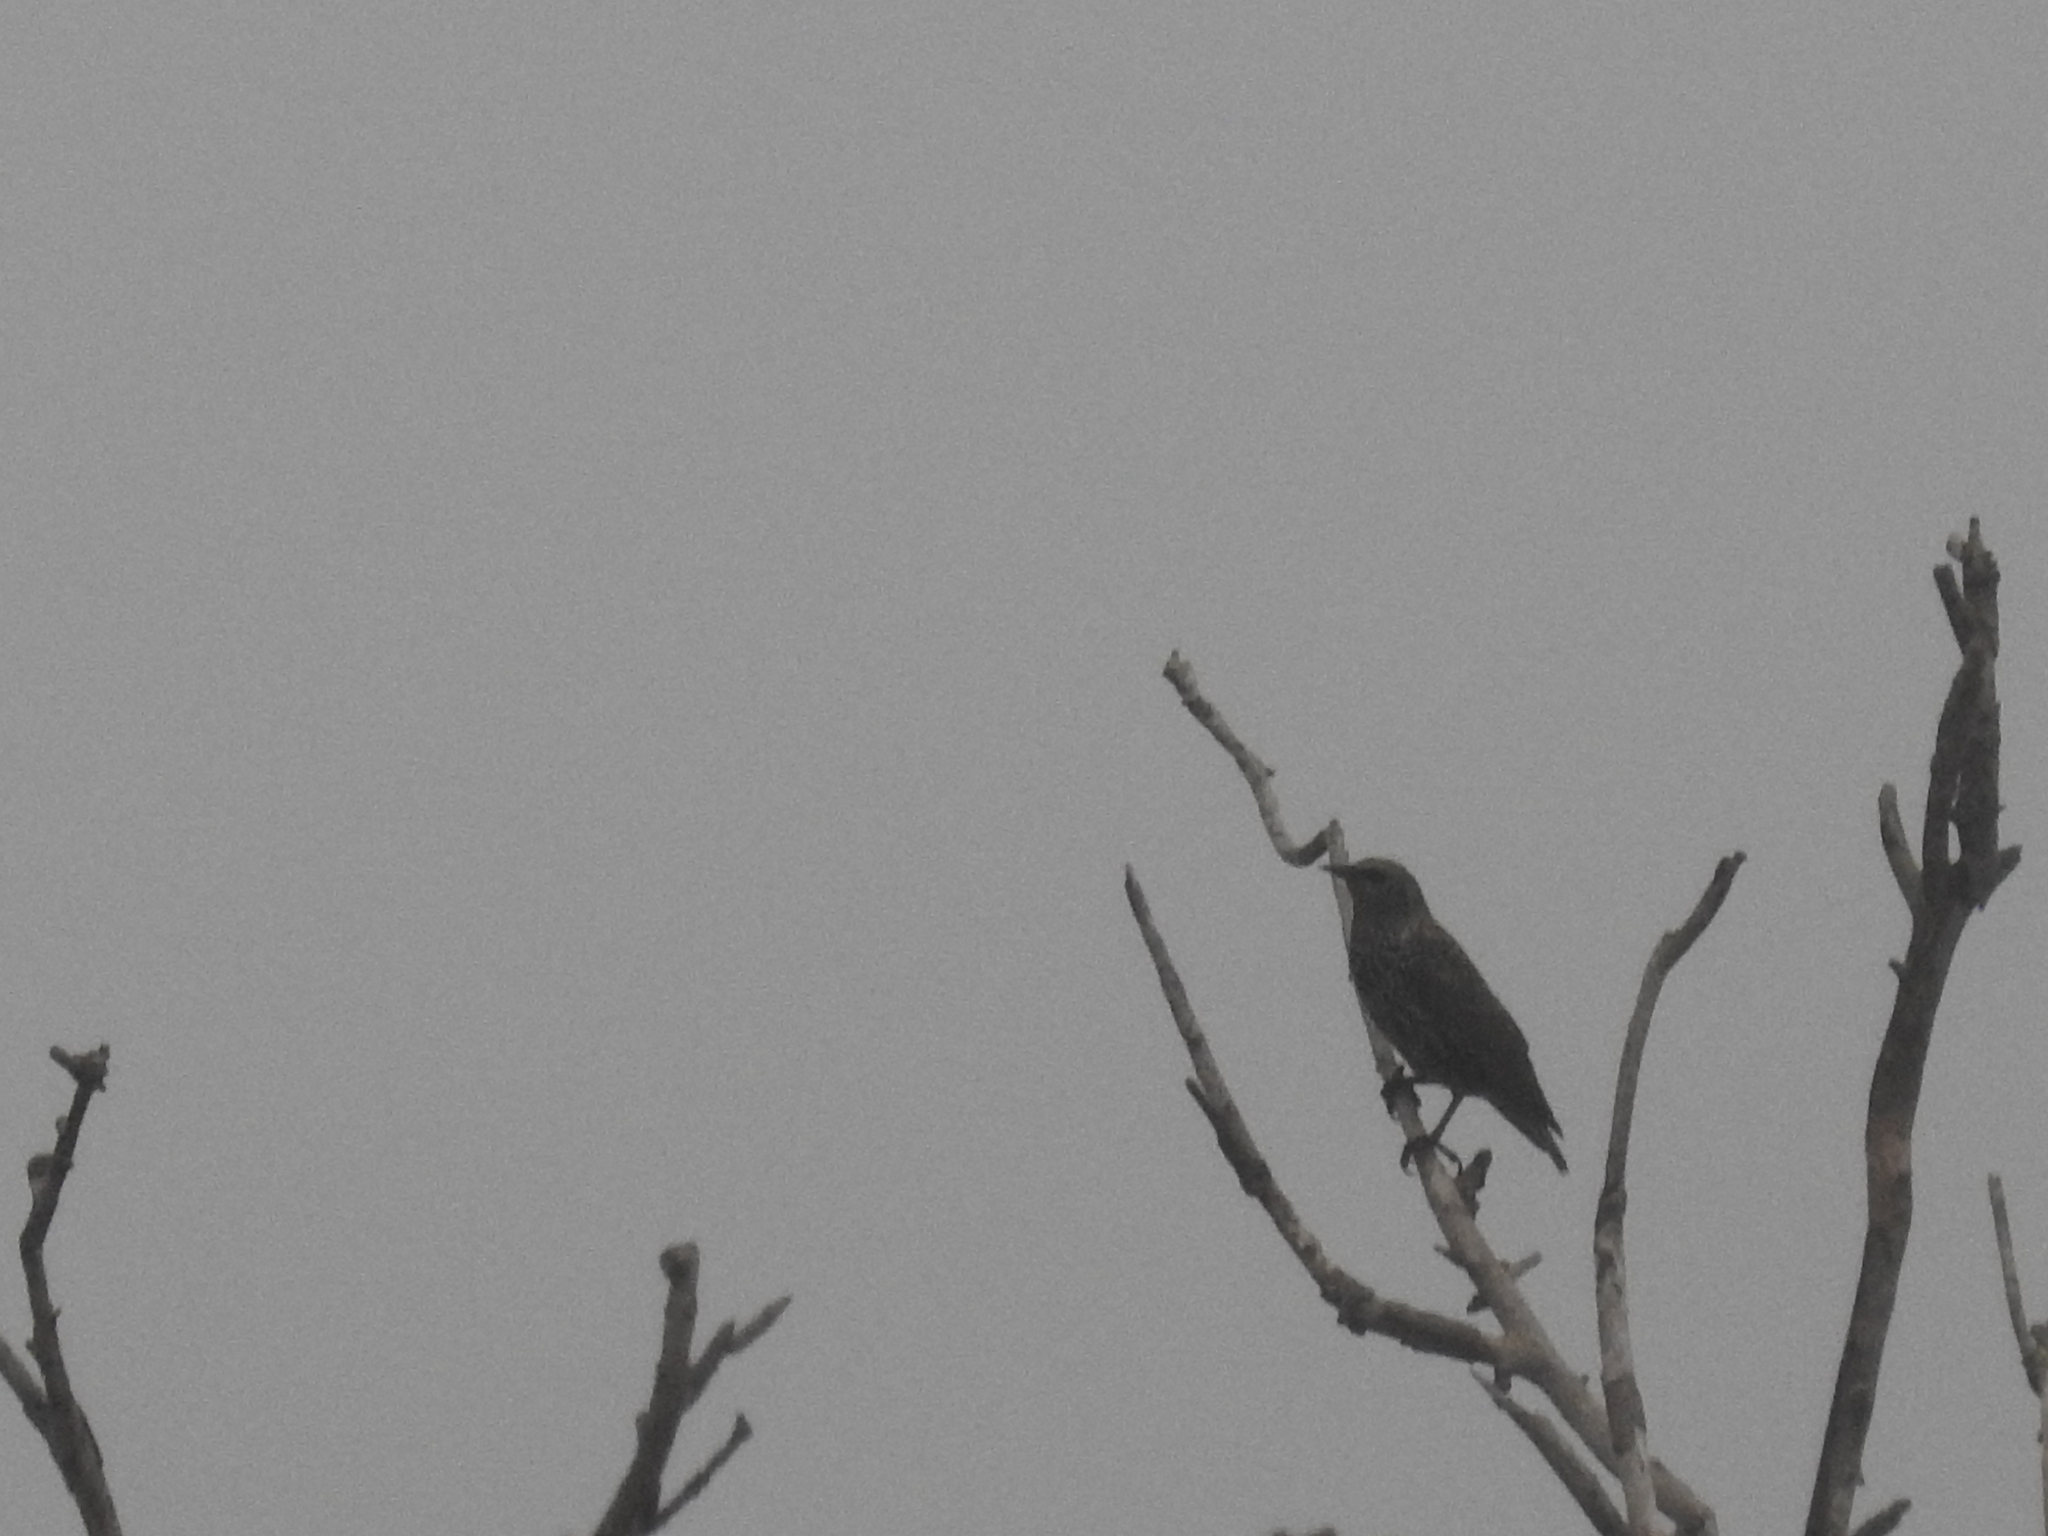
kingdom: Animalia
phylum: Chordata
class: Aves
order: Passeriformes
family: Sturnidae
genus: Sturnus
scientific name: Sturnus vulgaris
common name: Common starling
